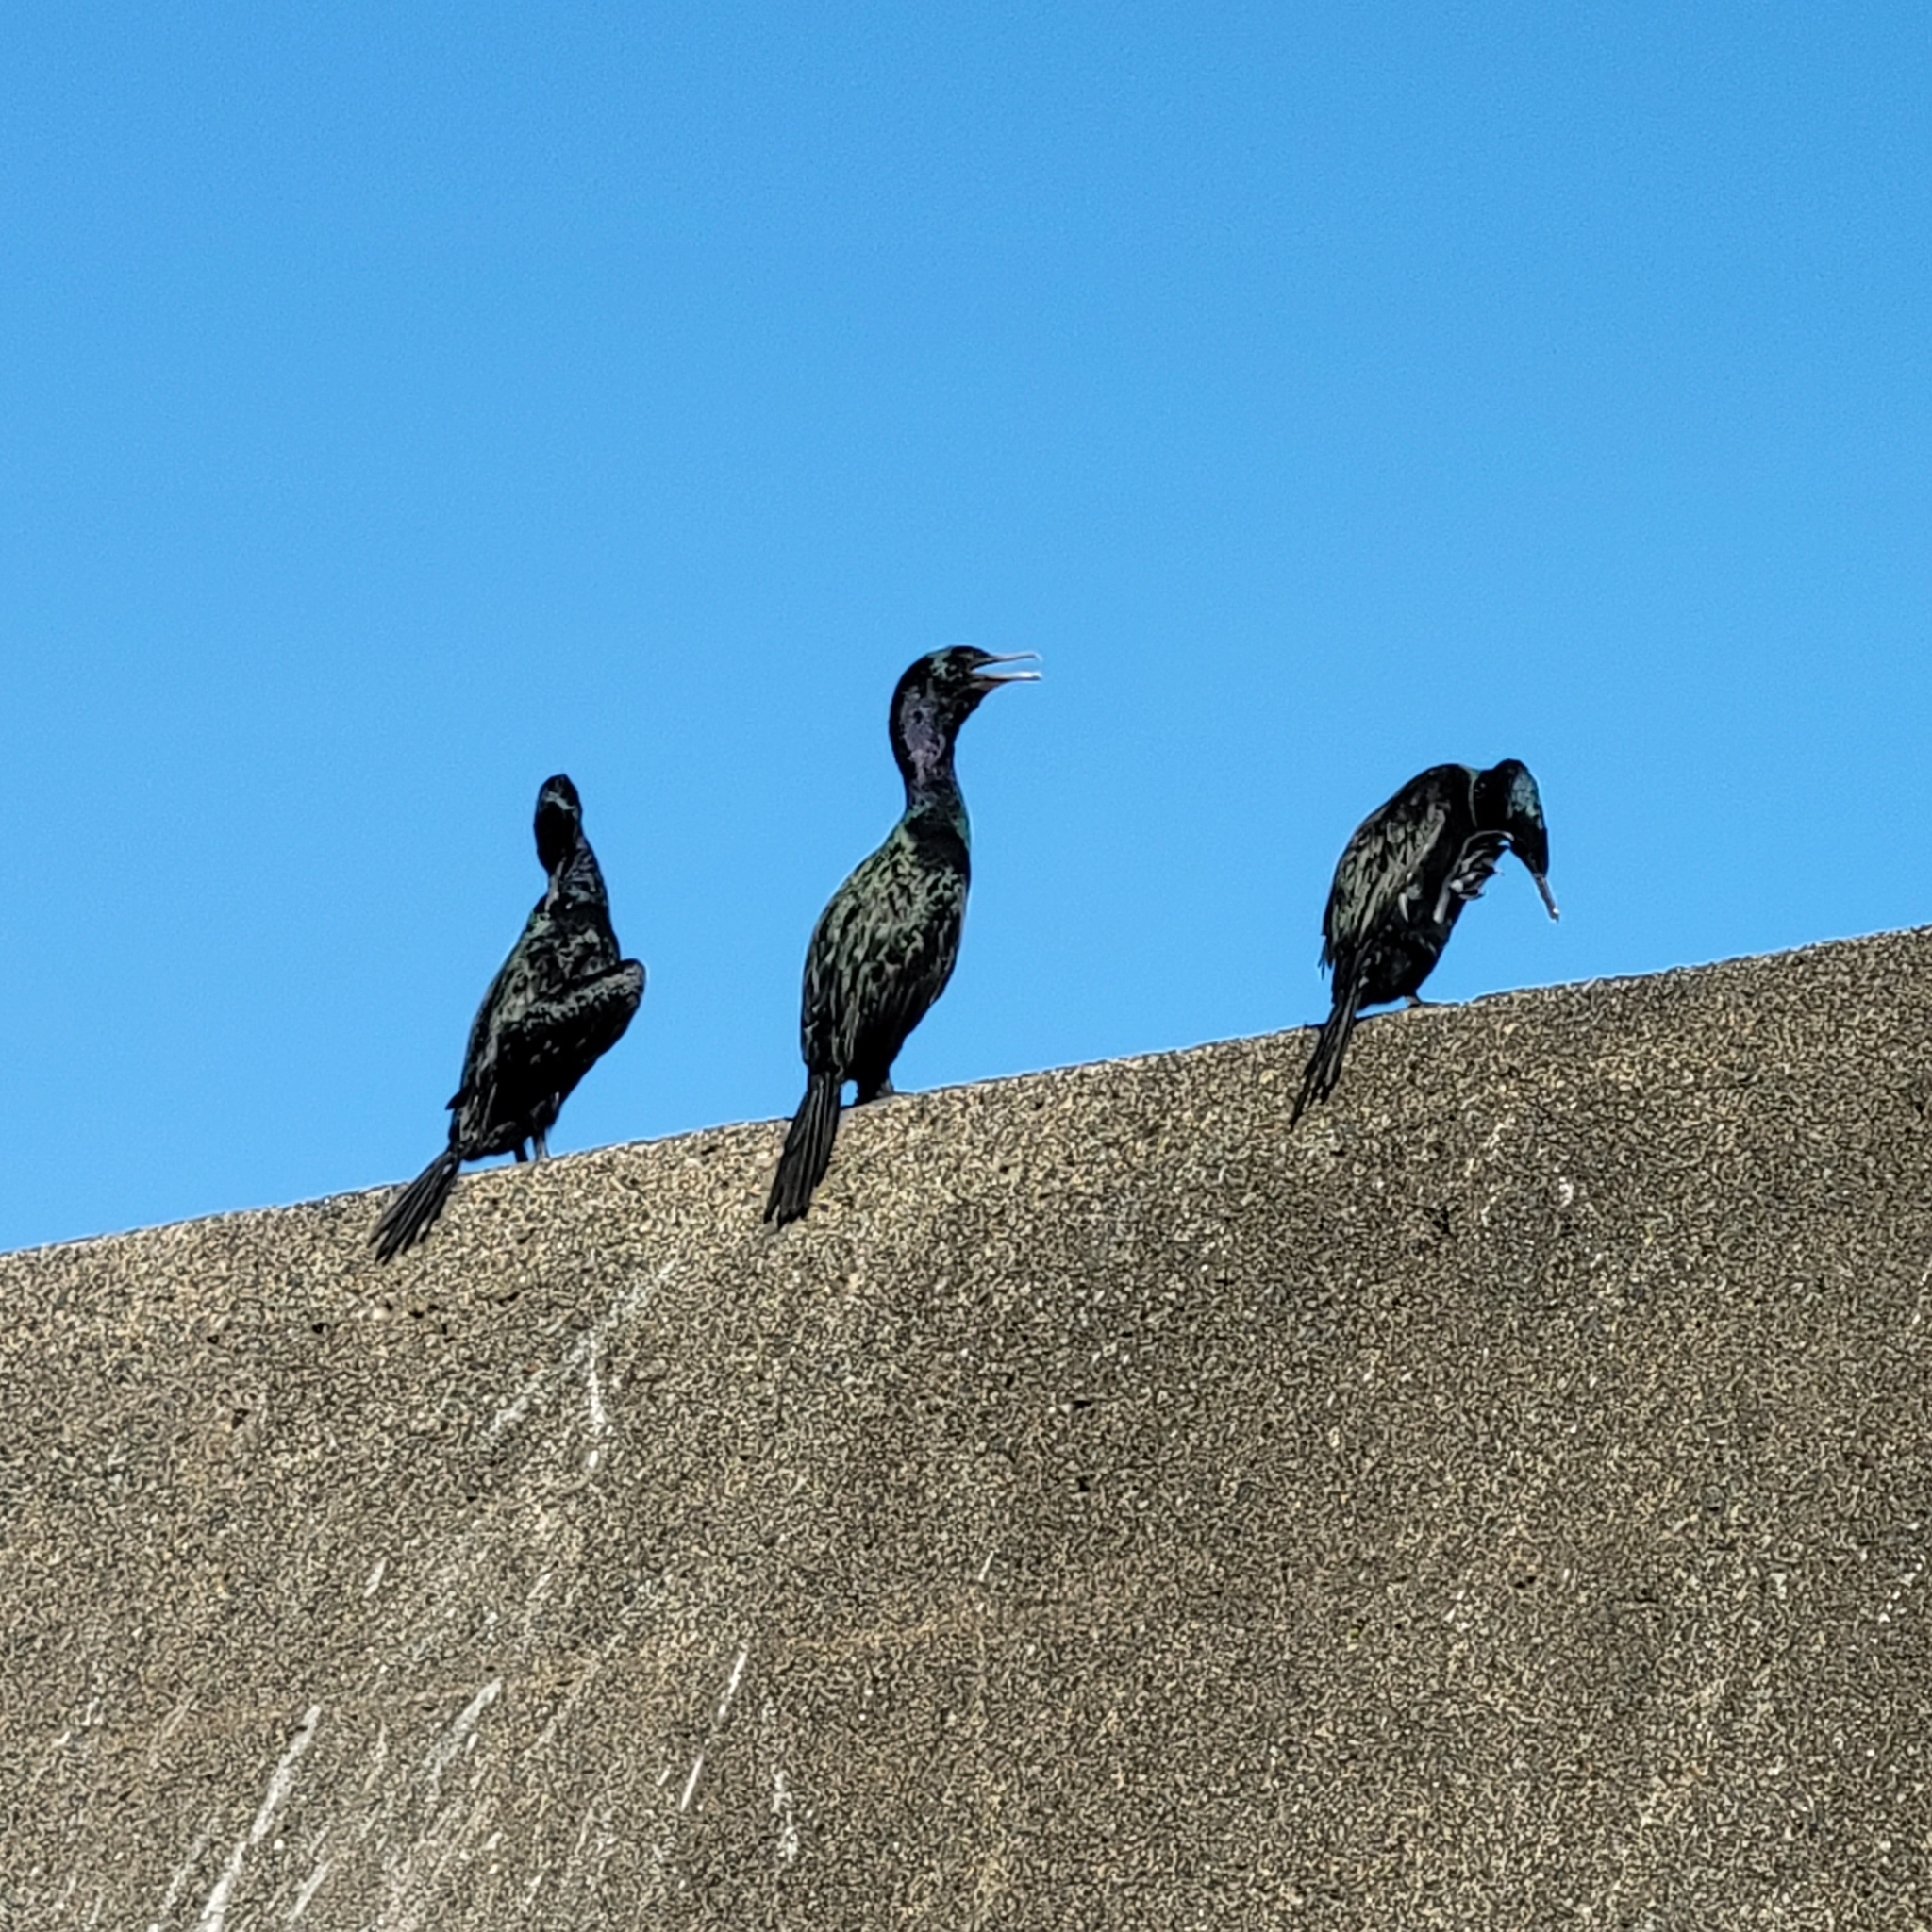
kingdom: Animalia
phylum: Chordata
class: Aves
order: Suliformes
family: Phalacrocoracidae
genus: Phalacrocorax
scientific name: Phalacrocorax pelagicus
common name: Pelagic cormorant
